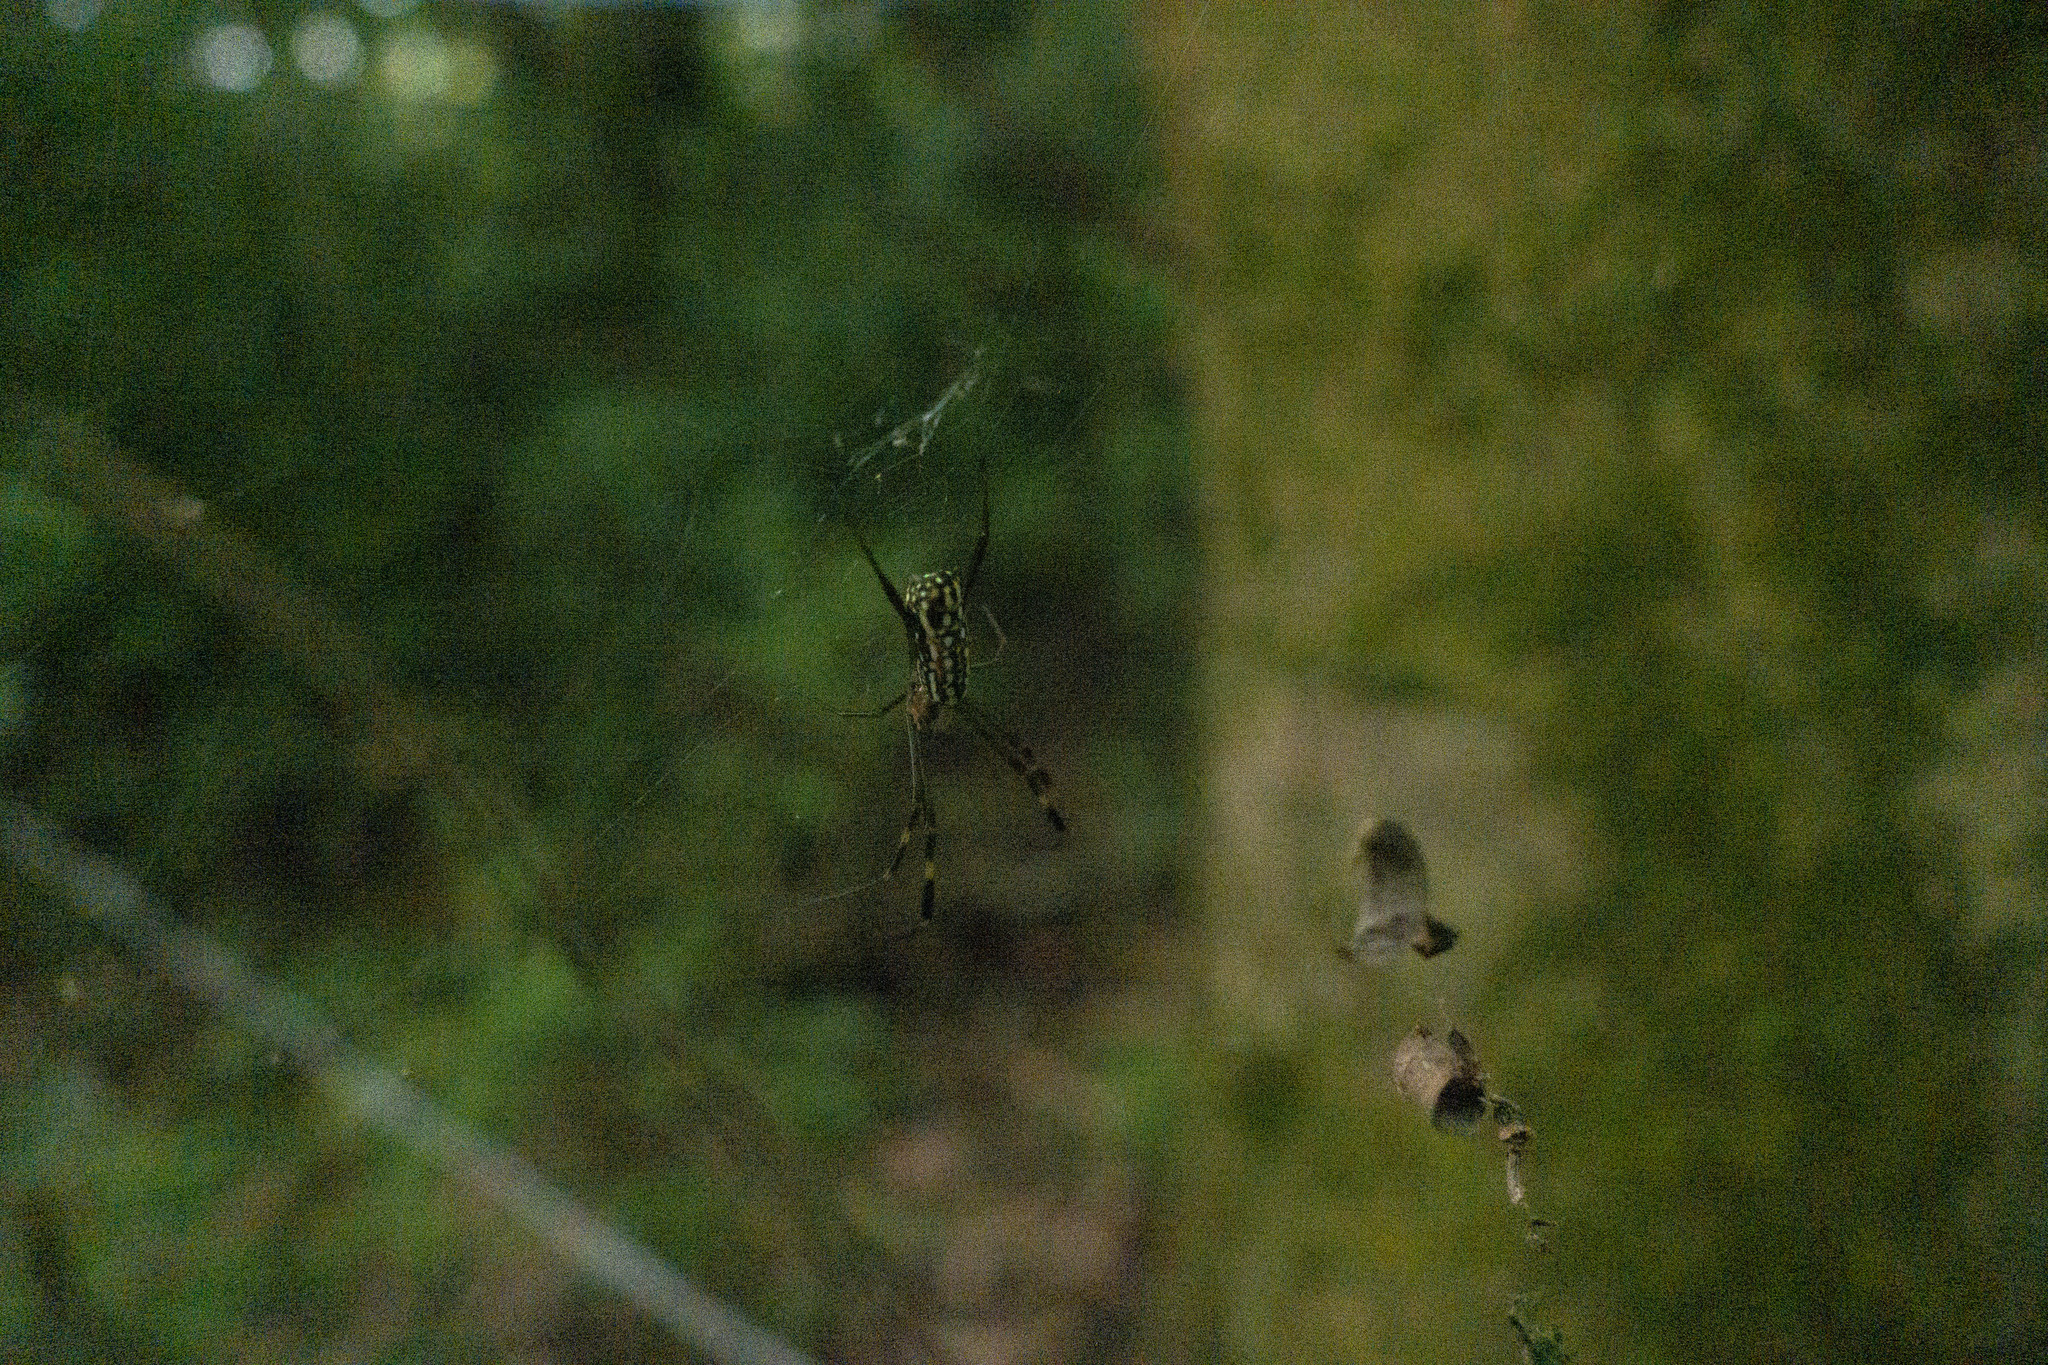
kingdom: Animalia
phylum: Arthropoda
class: Arachnida
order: Araneae
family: Araneidae
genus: Trichonephila
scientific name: Trichonephila clavipes
